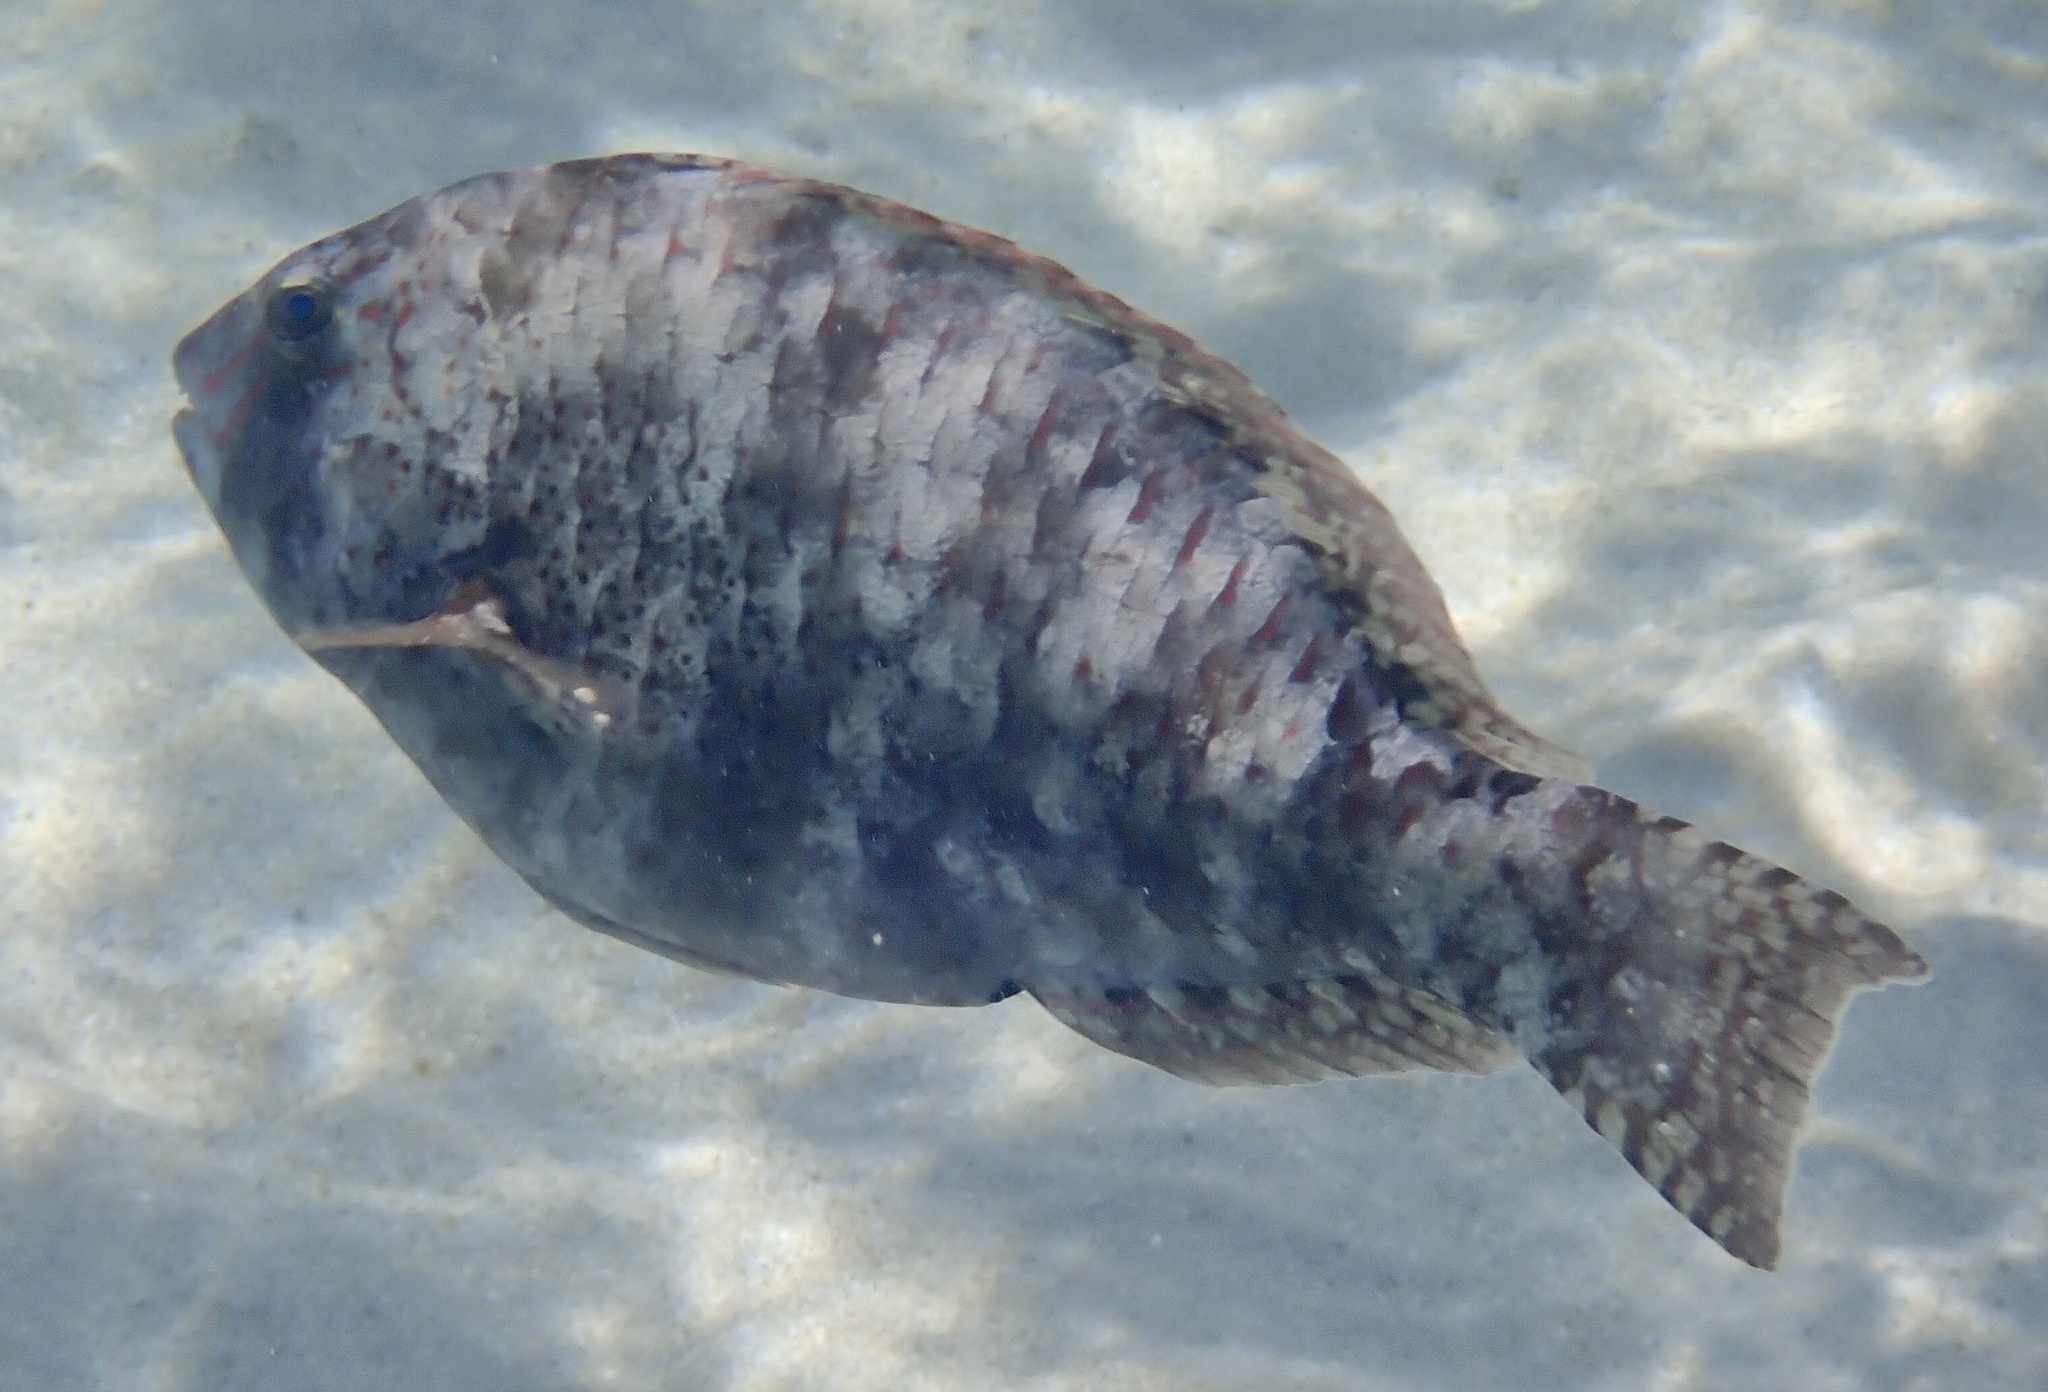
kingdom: Animalia
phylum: Chordata
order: Perciformes
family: Scaridae
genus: Calotomus
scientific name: Calotomus viridescens
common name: Dotted parrotfish
